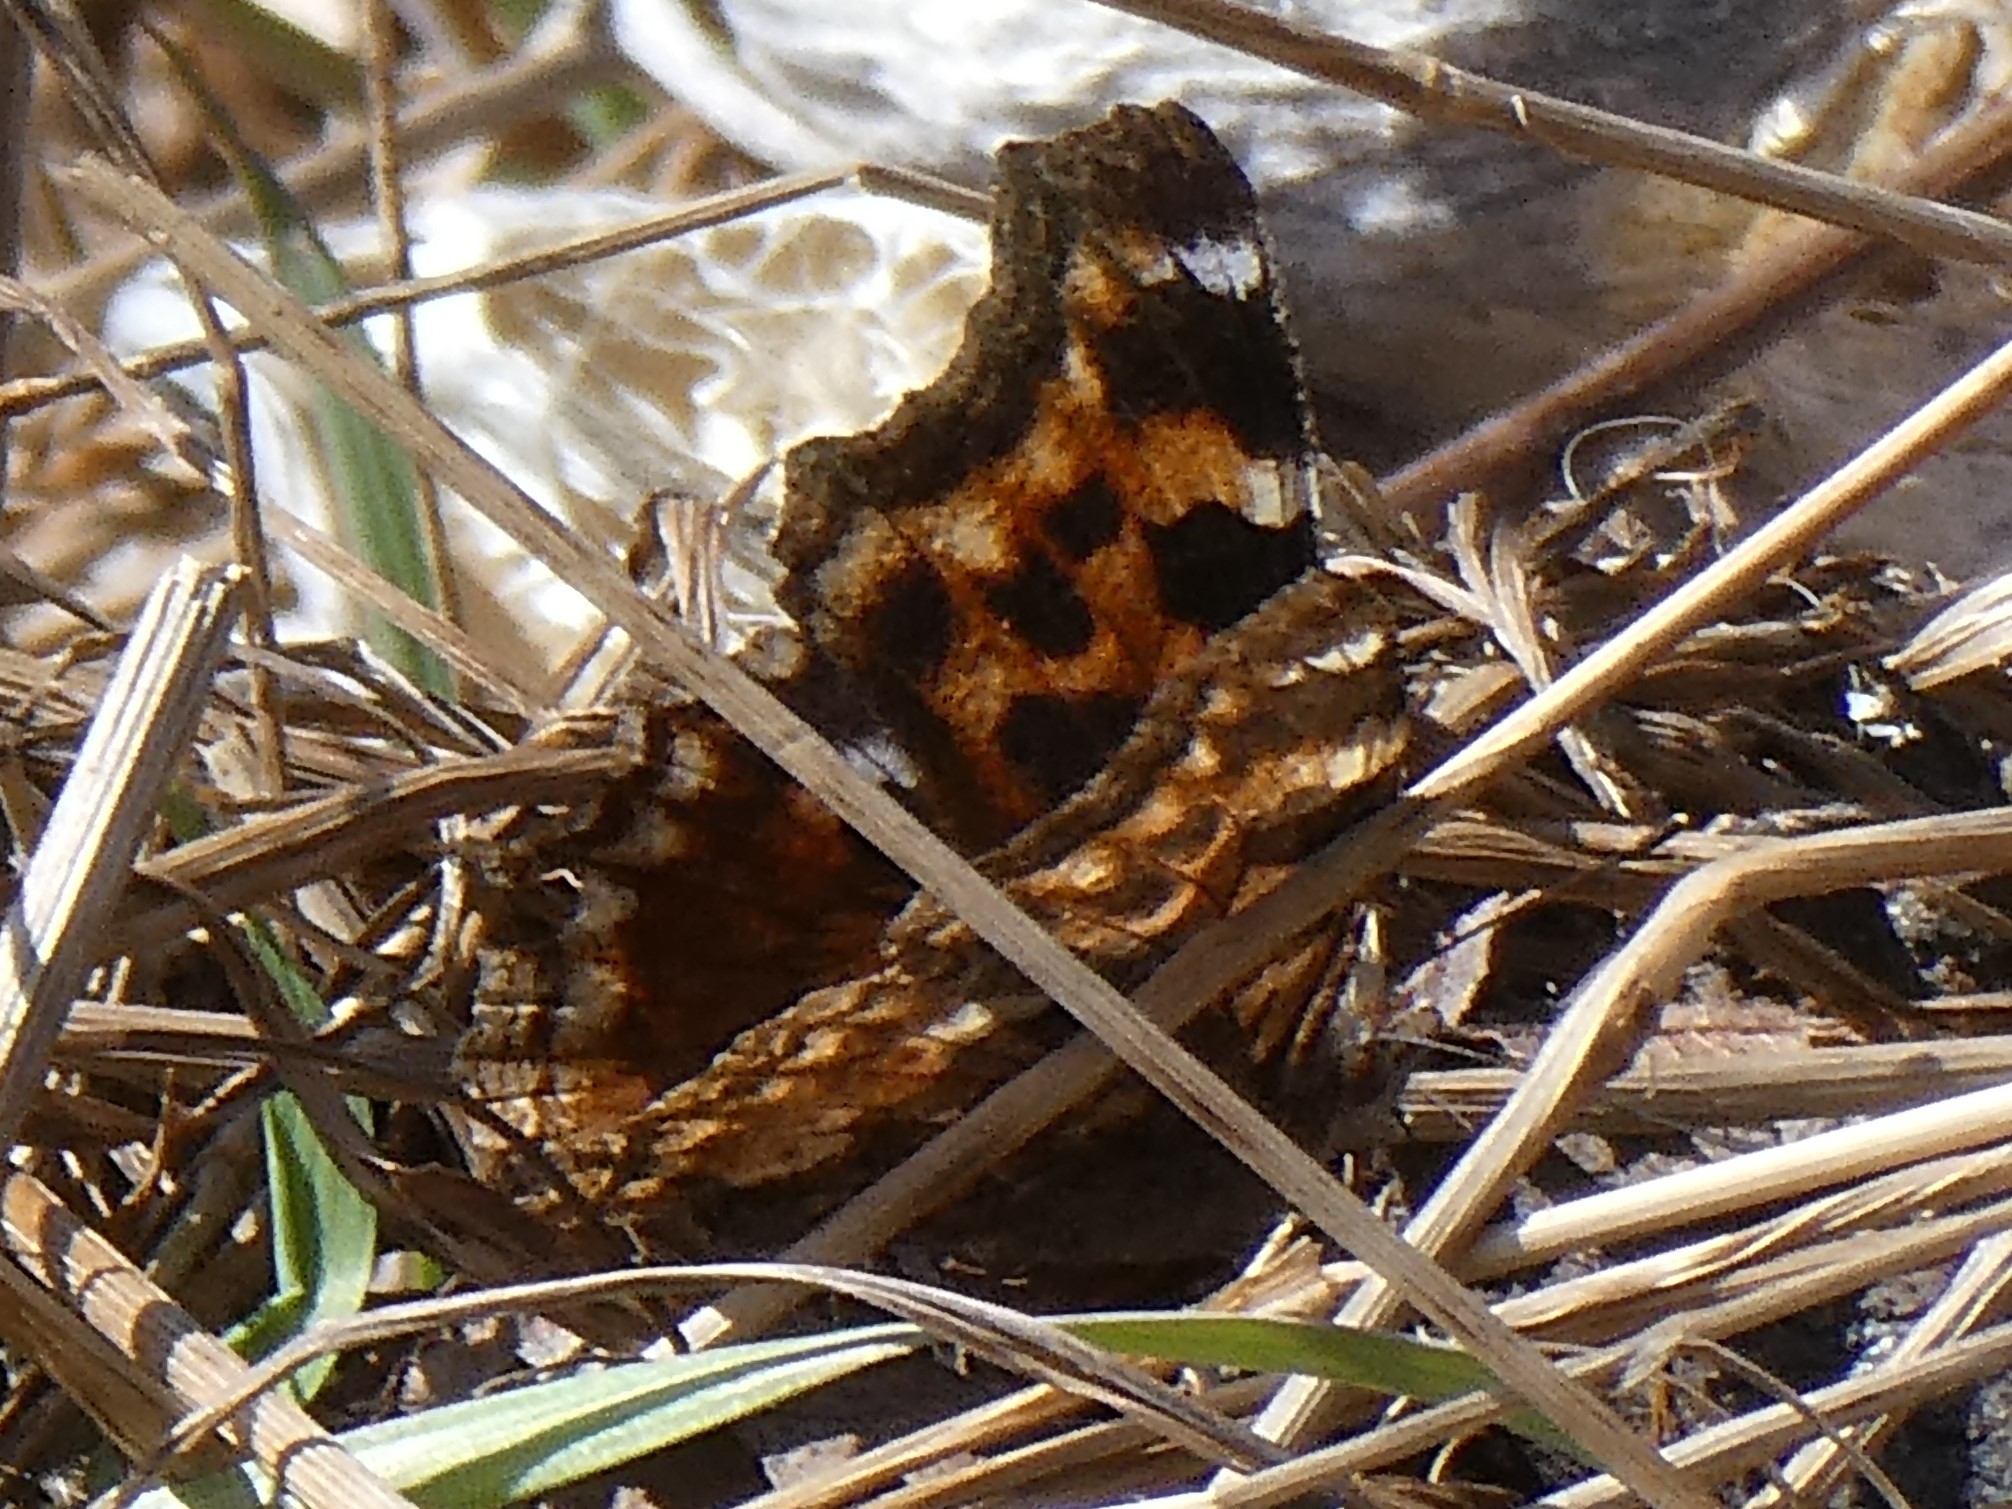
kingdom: Animalia
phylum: Arthropoda
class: Insecta
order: Lepidoptera
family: Nymphalidae
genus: Polygonia
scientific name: Polygonia vaualbum
